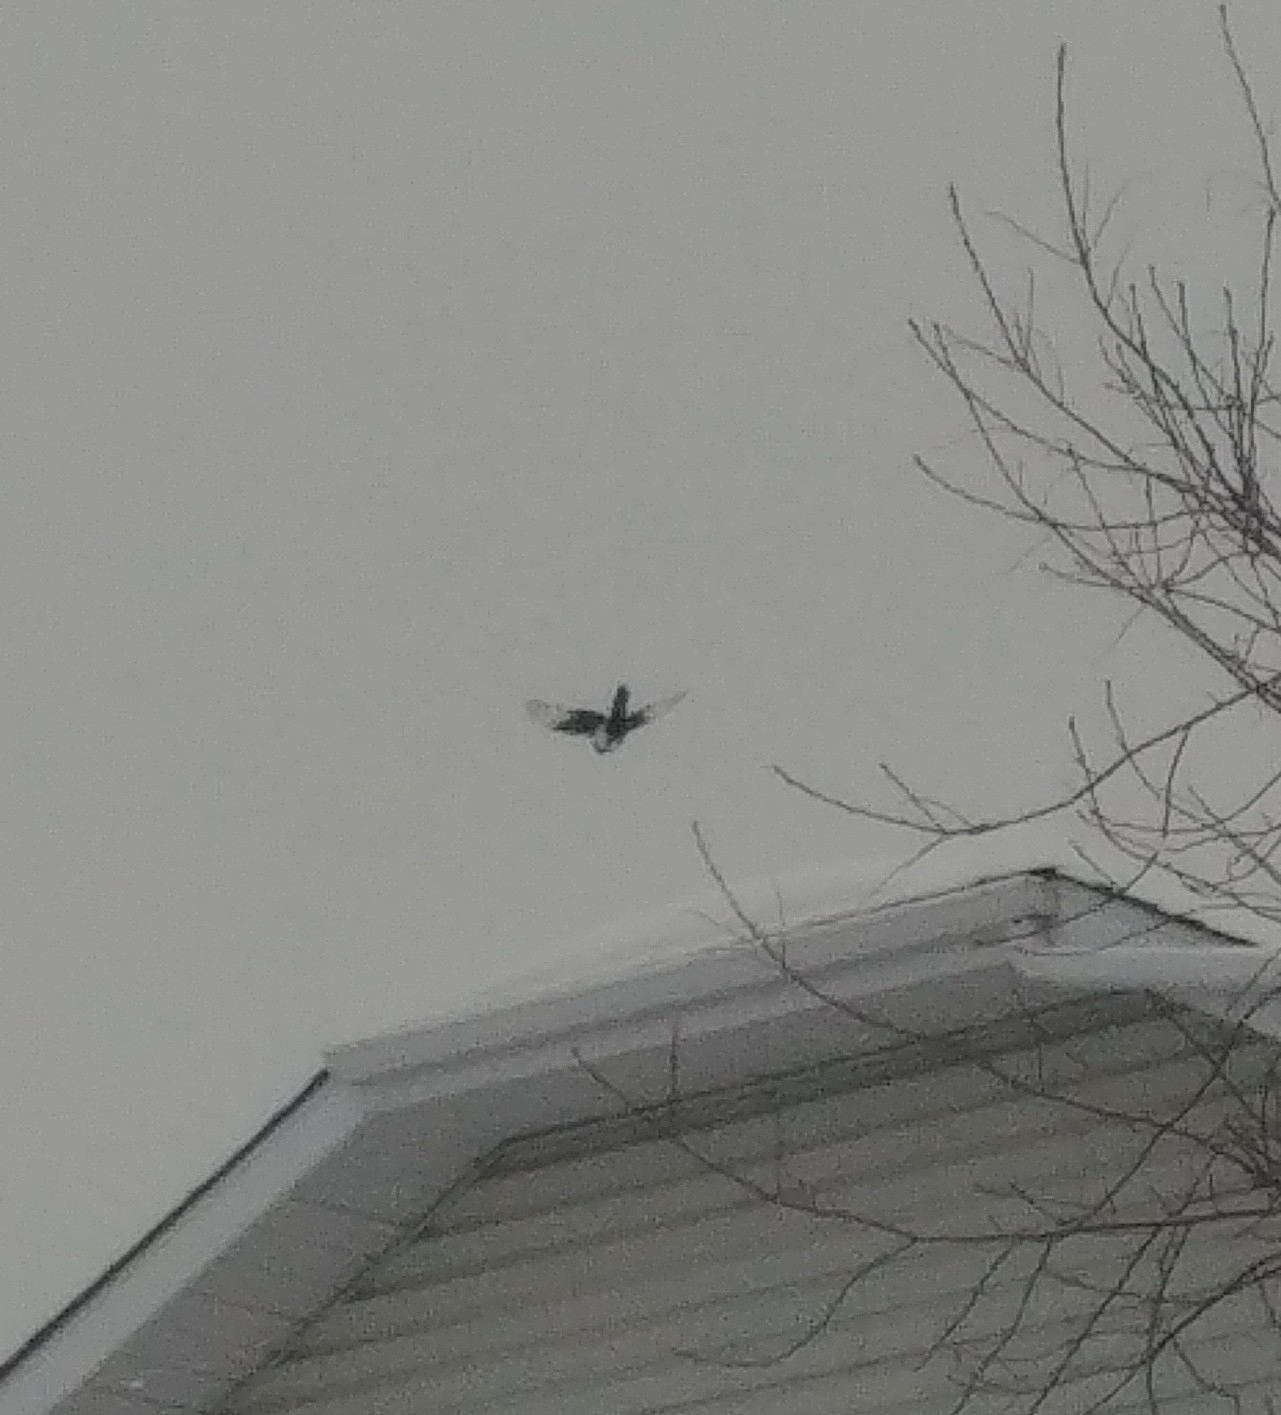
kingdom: Animalia
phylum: Chordata
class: Aves
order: Passeriformes
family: Corvidae
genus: Pica
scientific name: Pica hudsonia
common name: Black-billed magpie
